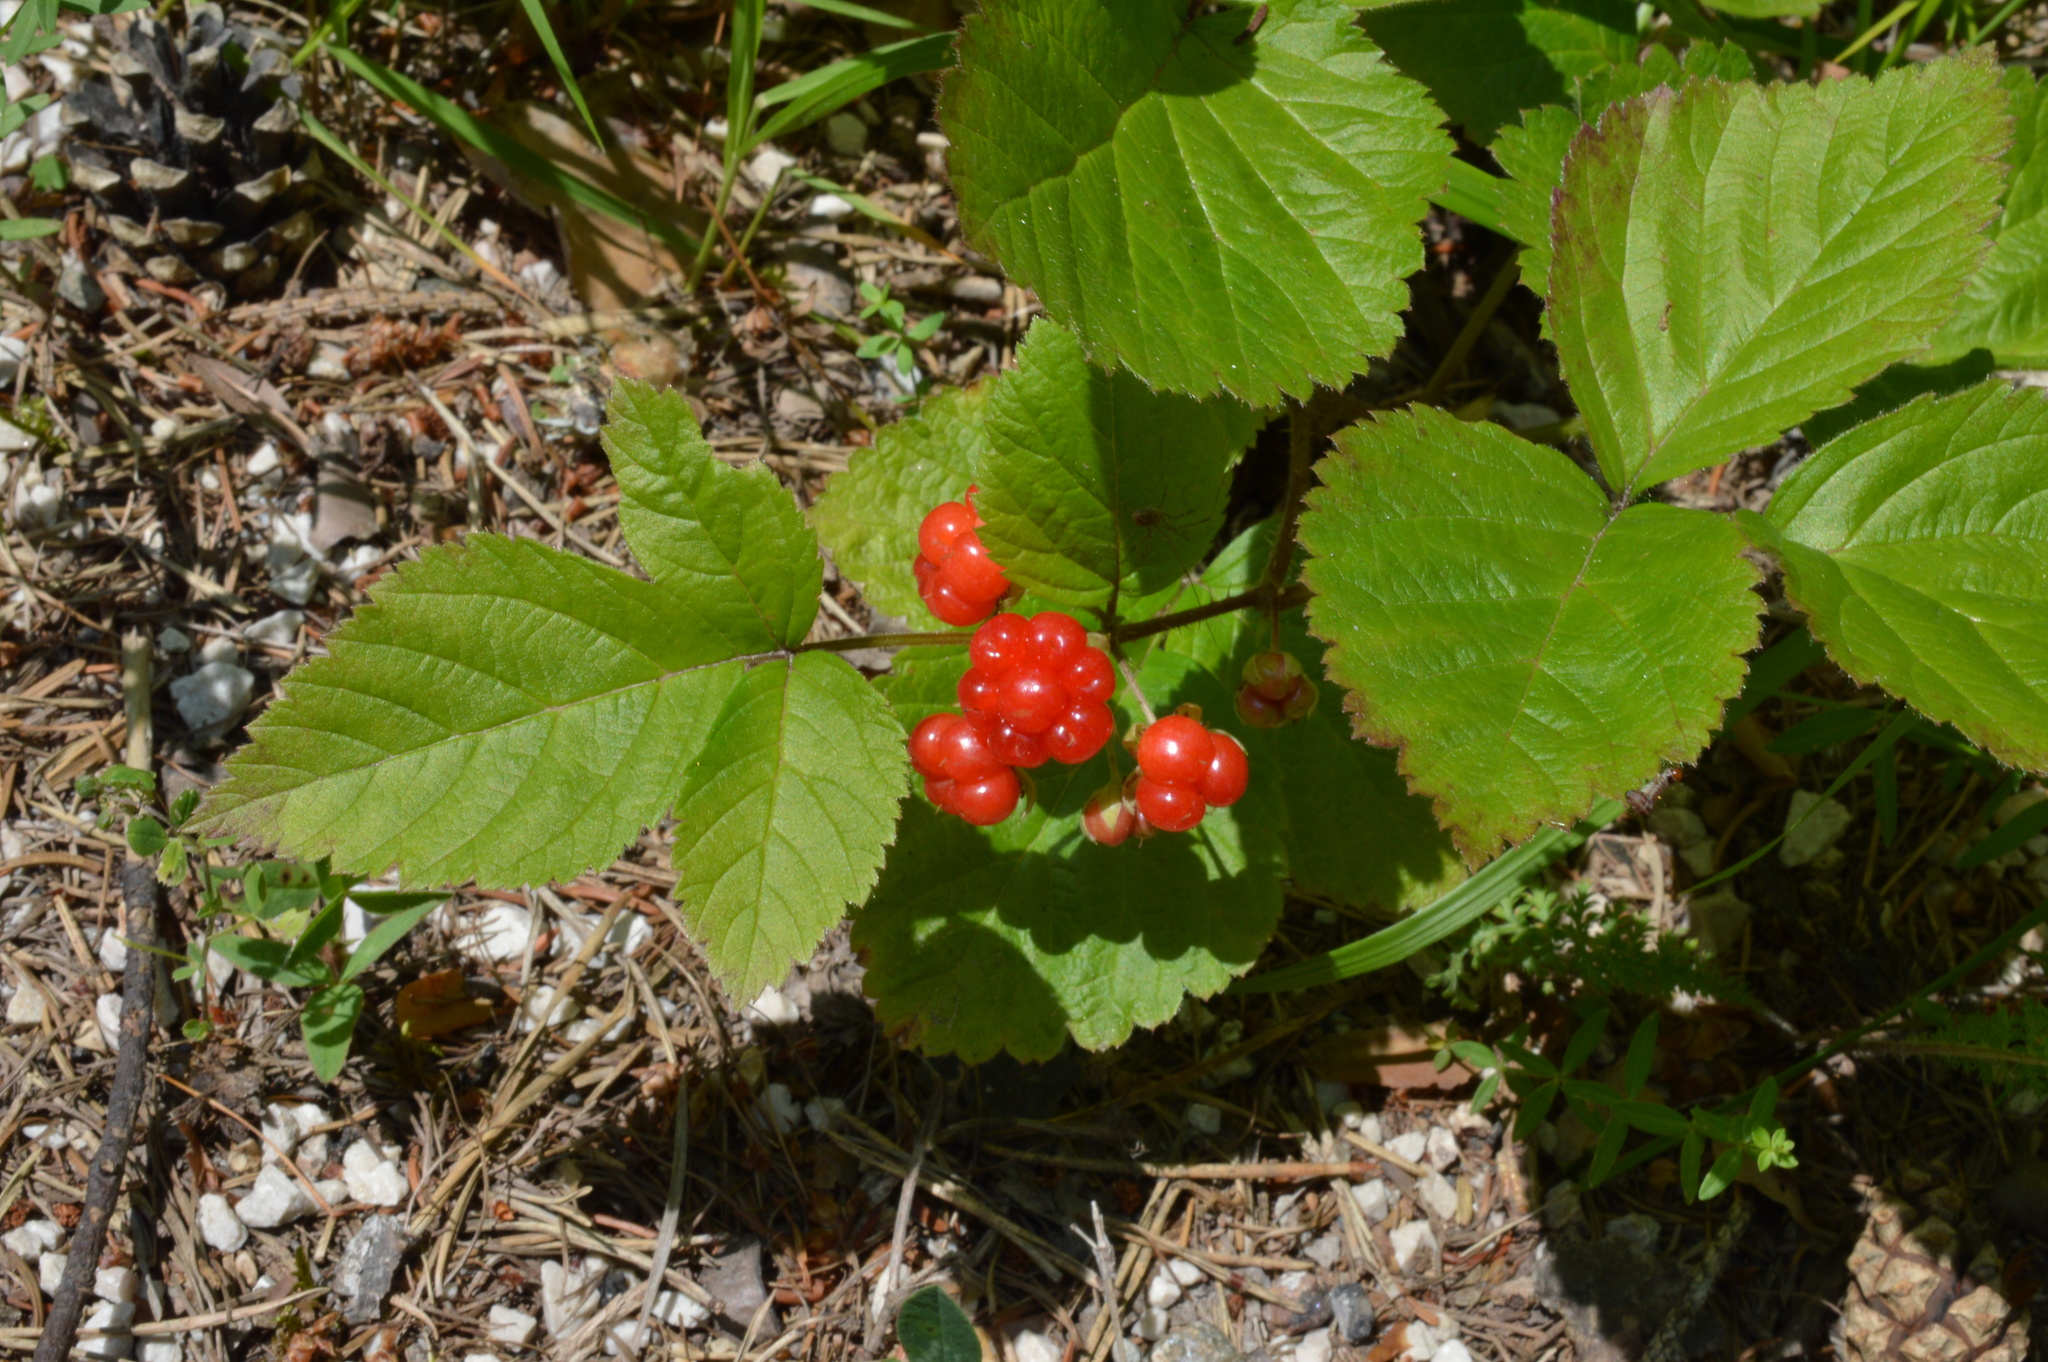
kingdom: Plantae
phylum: Tracheophyta
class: Magnoliopsida
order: Rosales
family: Rosaceae
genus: Rubus
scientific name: Rubus saxatilis
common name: Stone bramble
